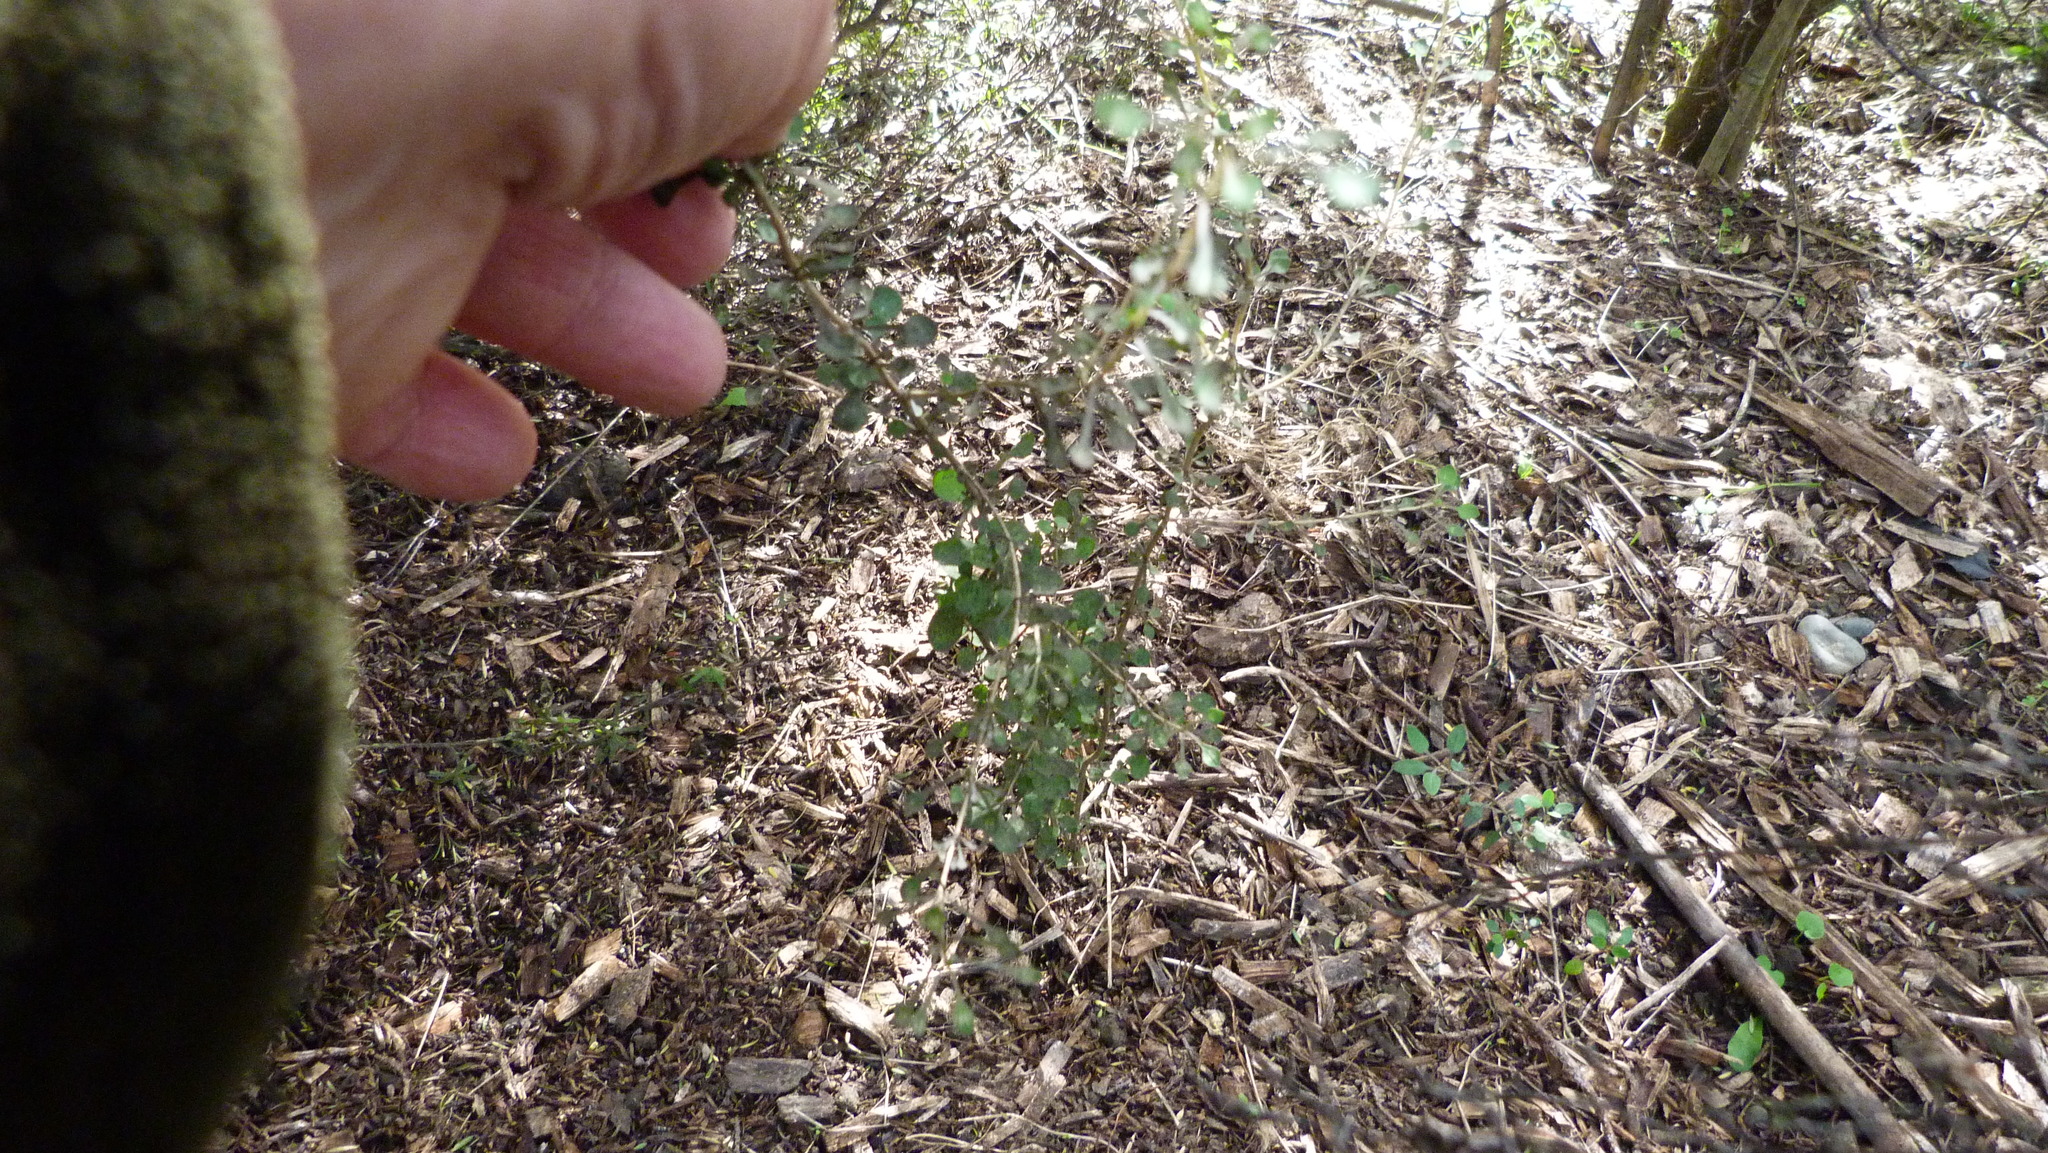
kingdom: Plantae
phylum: Tracheophyta
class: Magnoliopsida
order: Gentianales
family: Rubiaceae
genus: Coprosma
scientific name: Coprosma virescens
